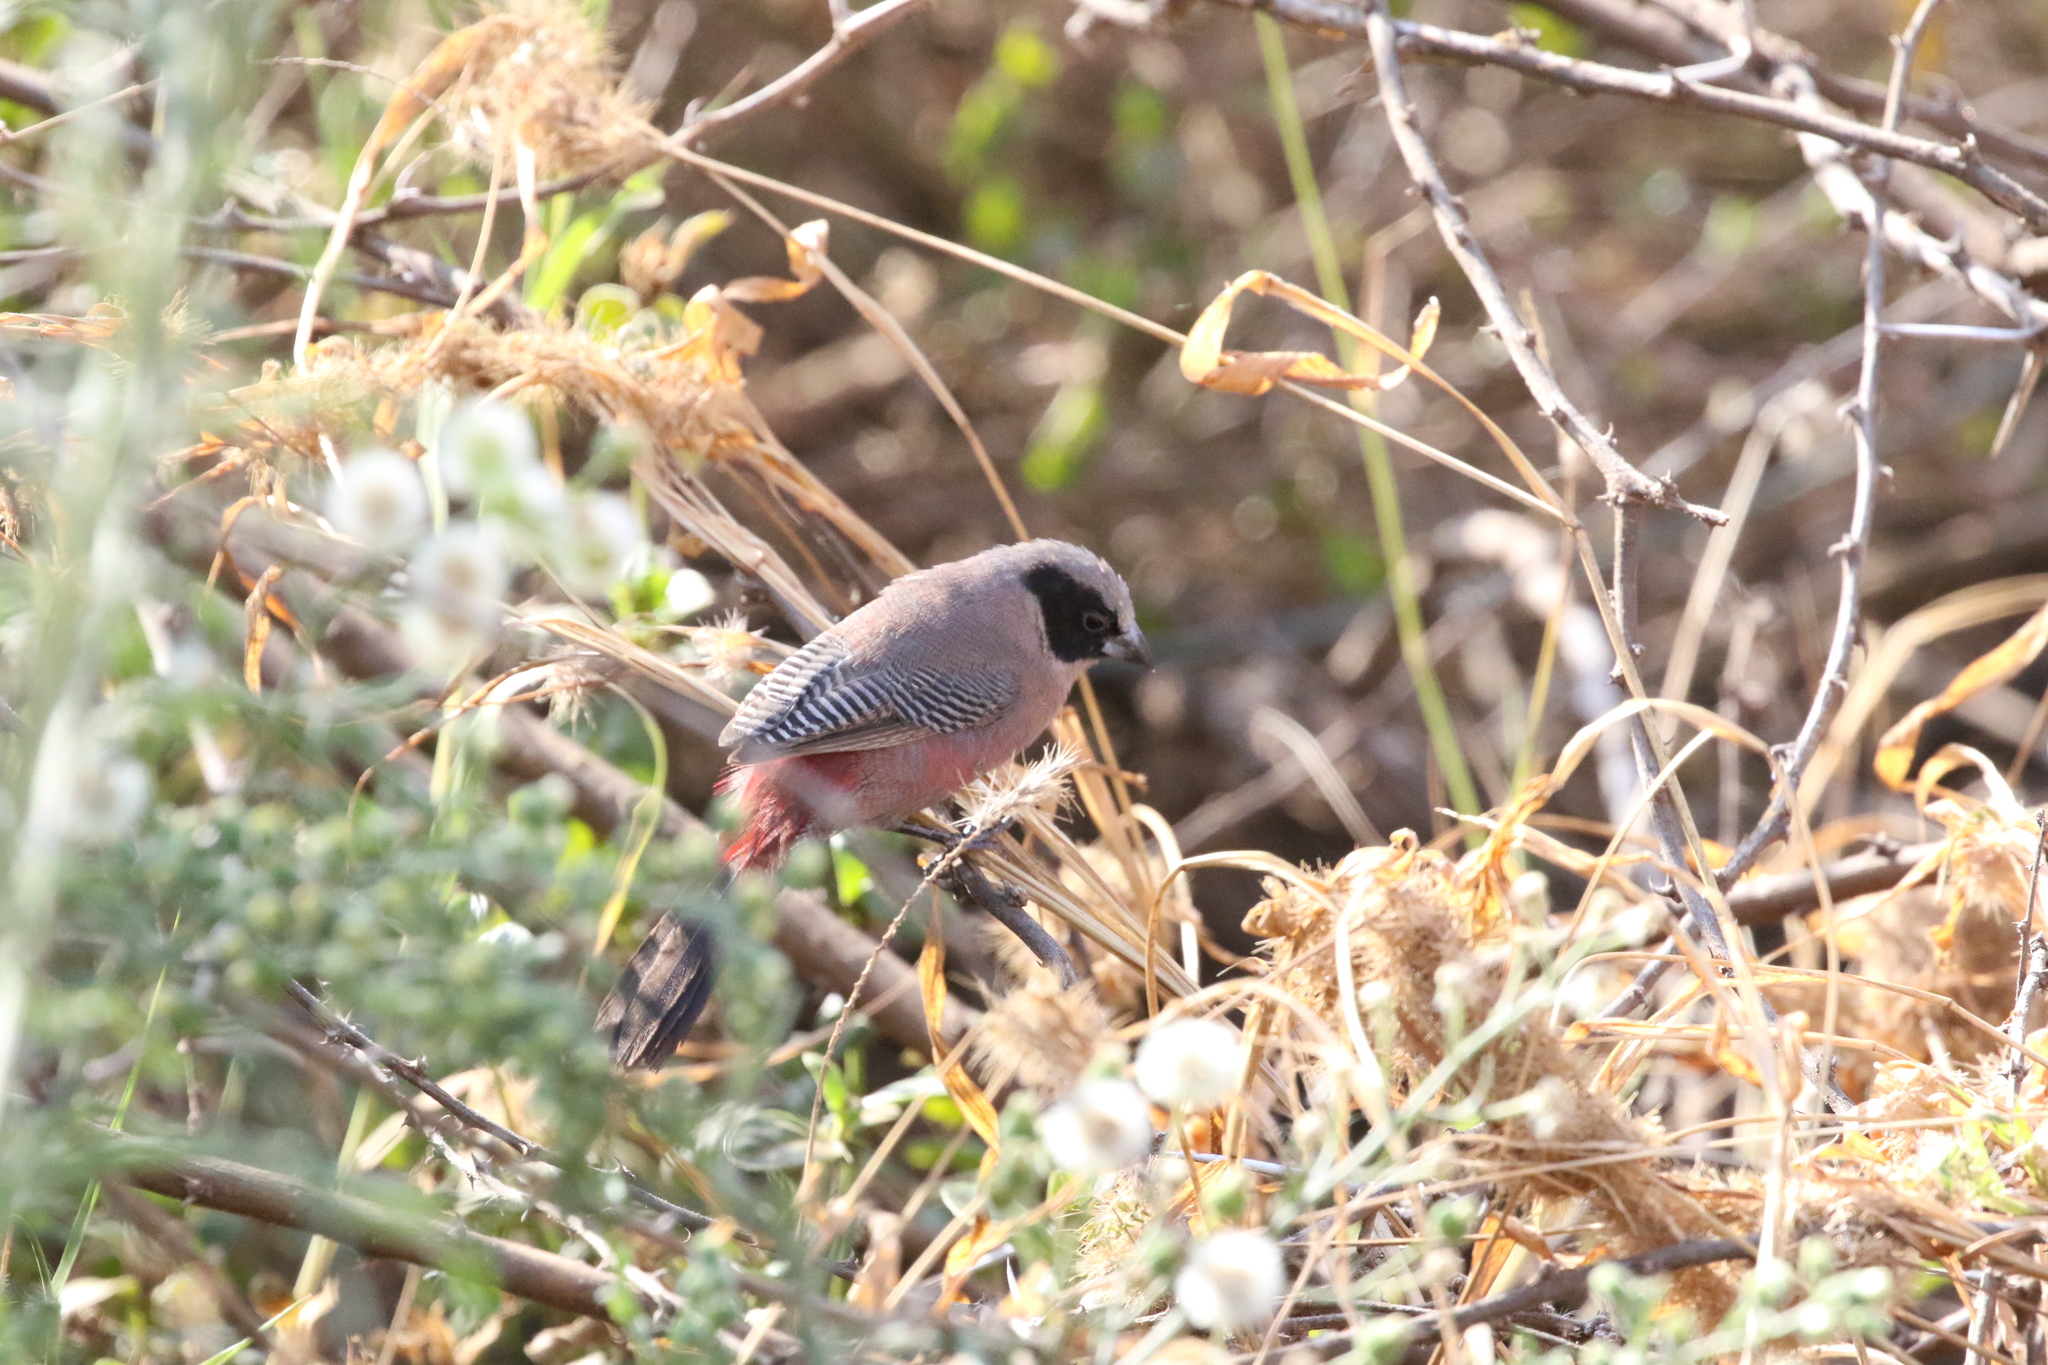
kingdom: Animalia
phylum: Chordata
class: Aves
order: Passeriformes
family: Estrildidae
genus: Estrilda
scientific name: Estrilda charmosyna
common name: Black-cheeked waxbill
